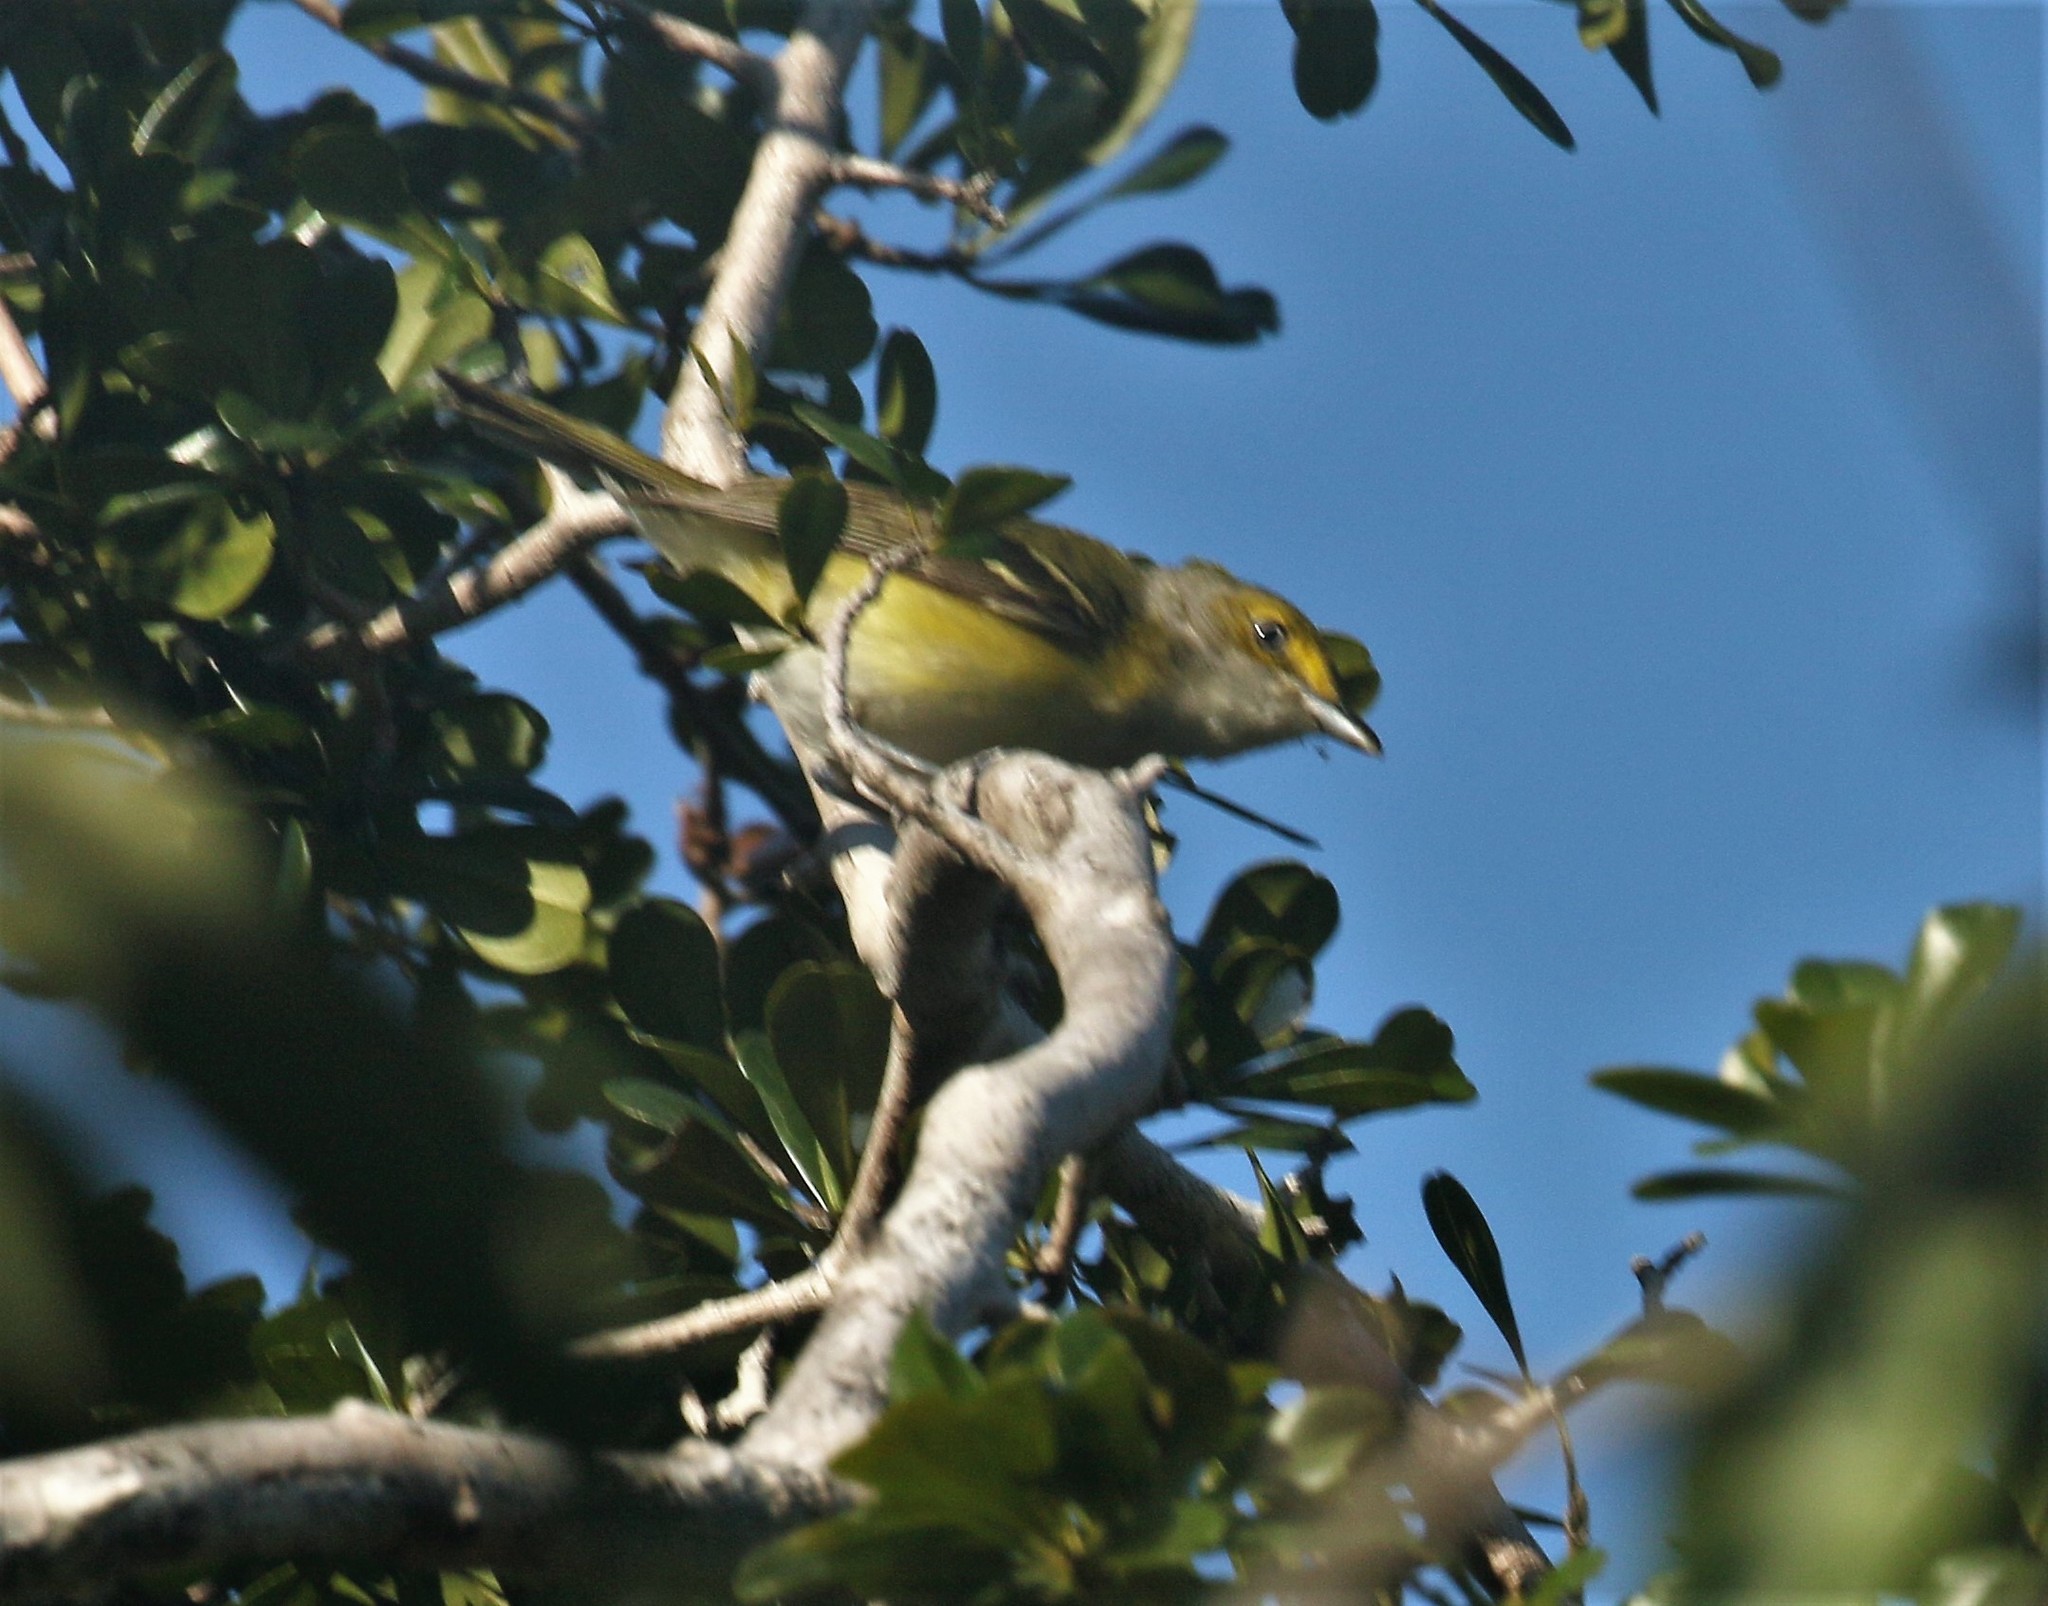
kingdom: Animalia
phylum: Chordata
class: Aves
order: Passeriformes
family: Vireonidae
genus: Vireo
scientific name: Vireo griseus
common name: White-eyed vireo
